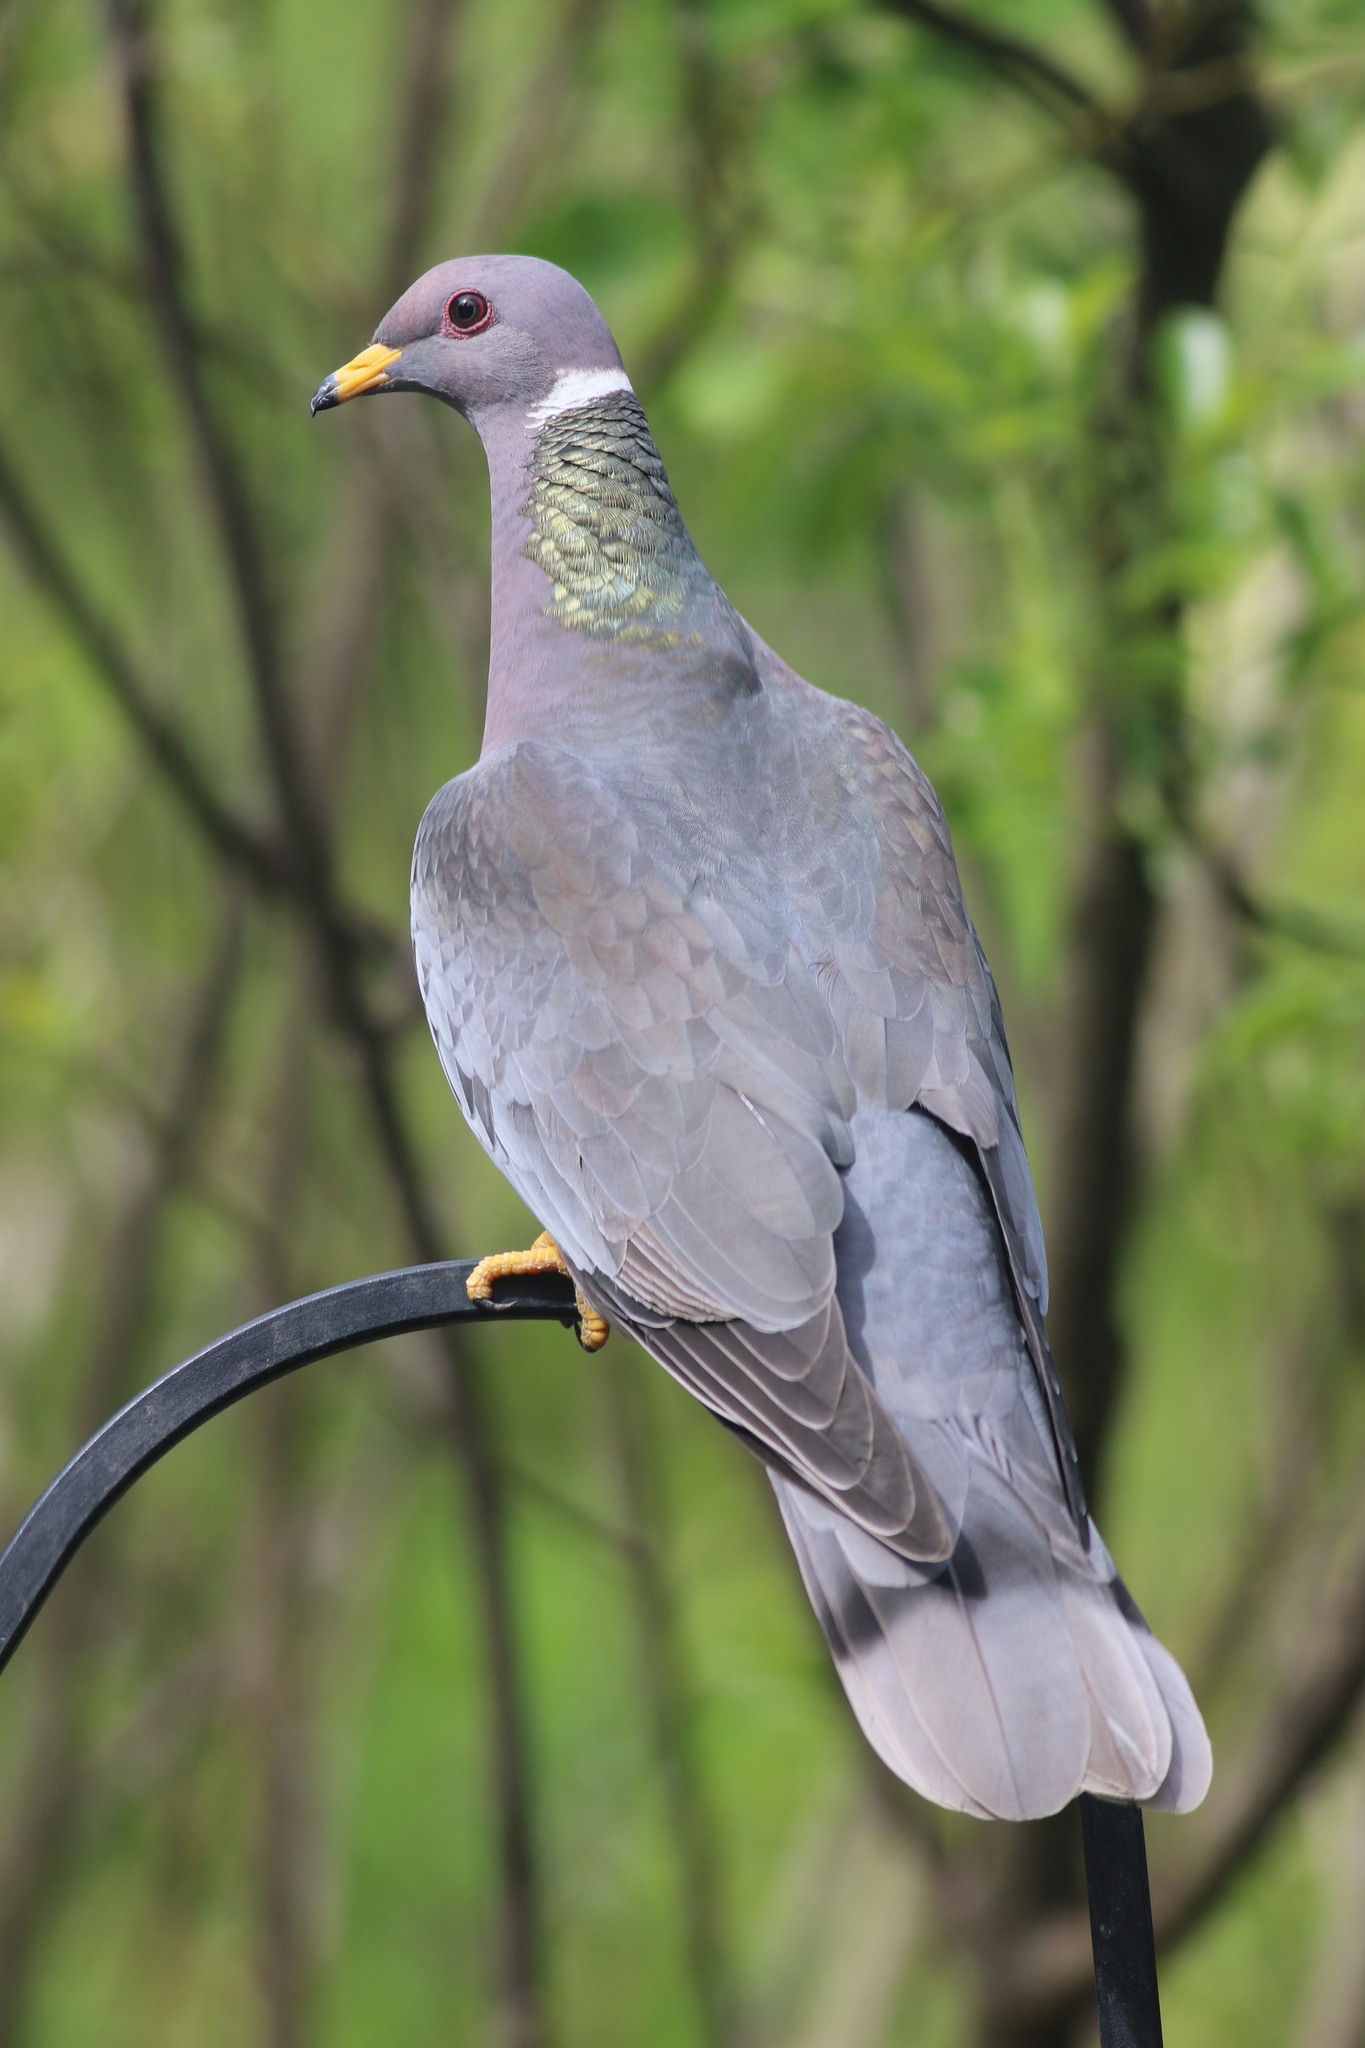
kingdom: Animalia
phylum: Chordata
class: Aves
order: Columbiformes
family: Columbidae
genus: Patagioenas
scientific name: Patagioenas fasciata
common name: Band-tailed pigeon
